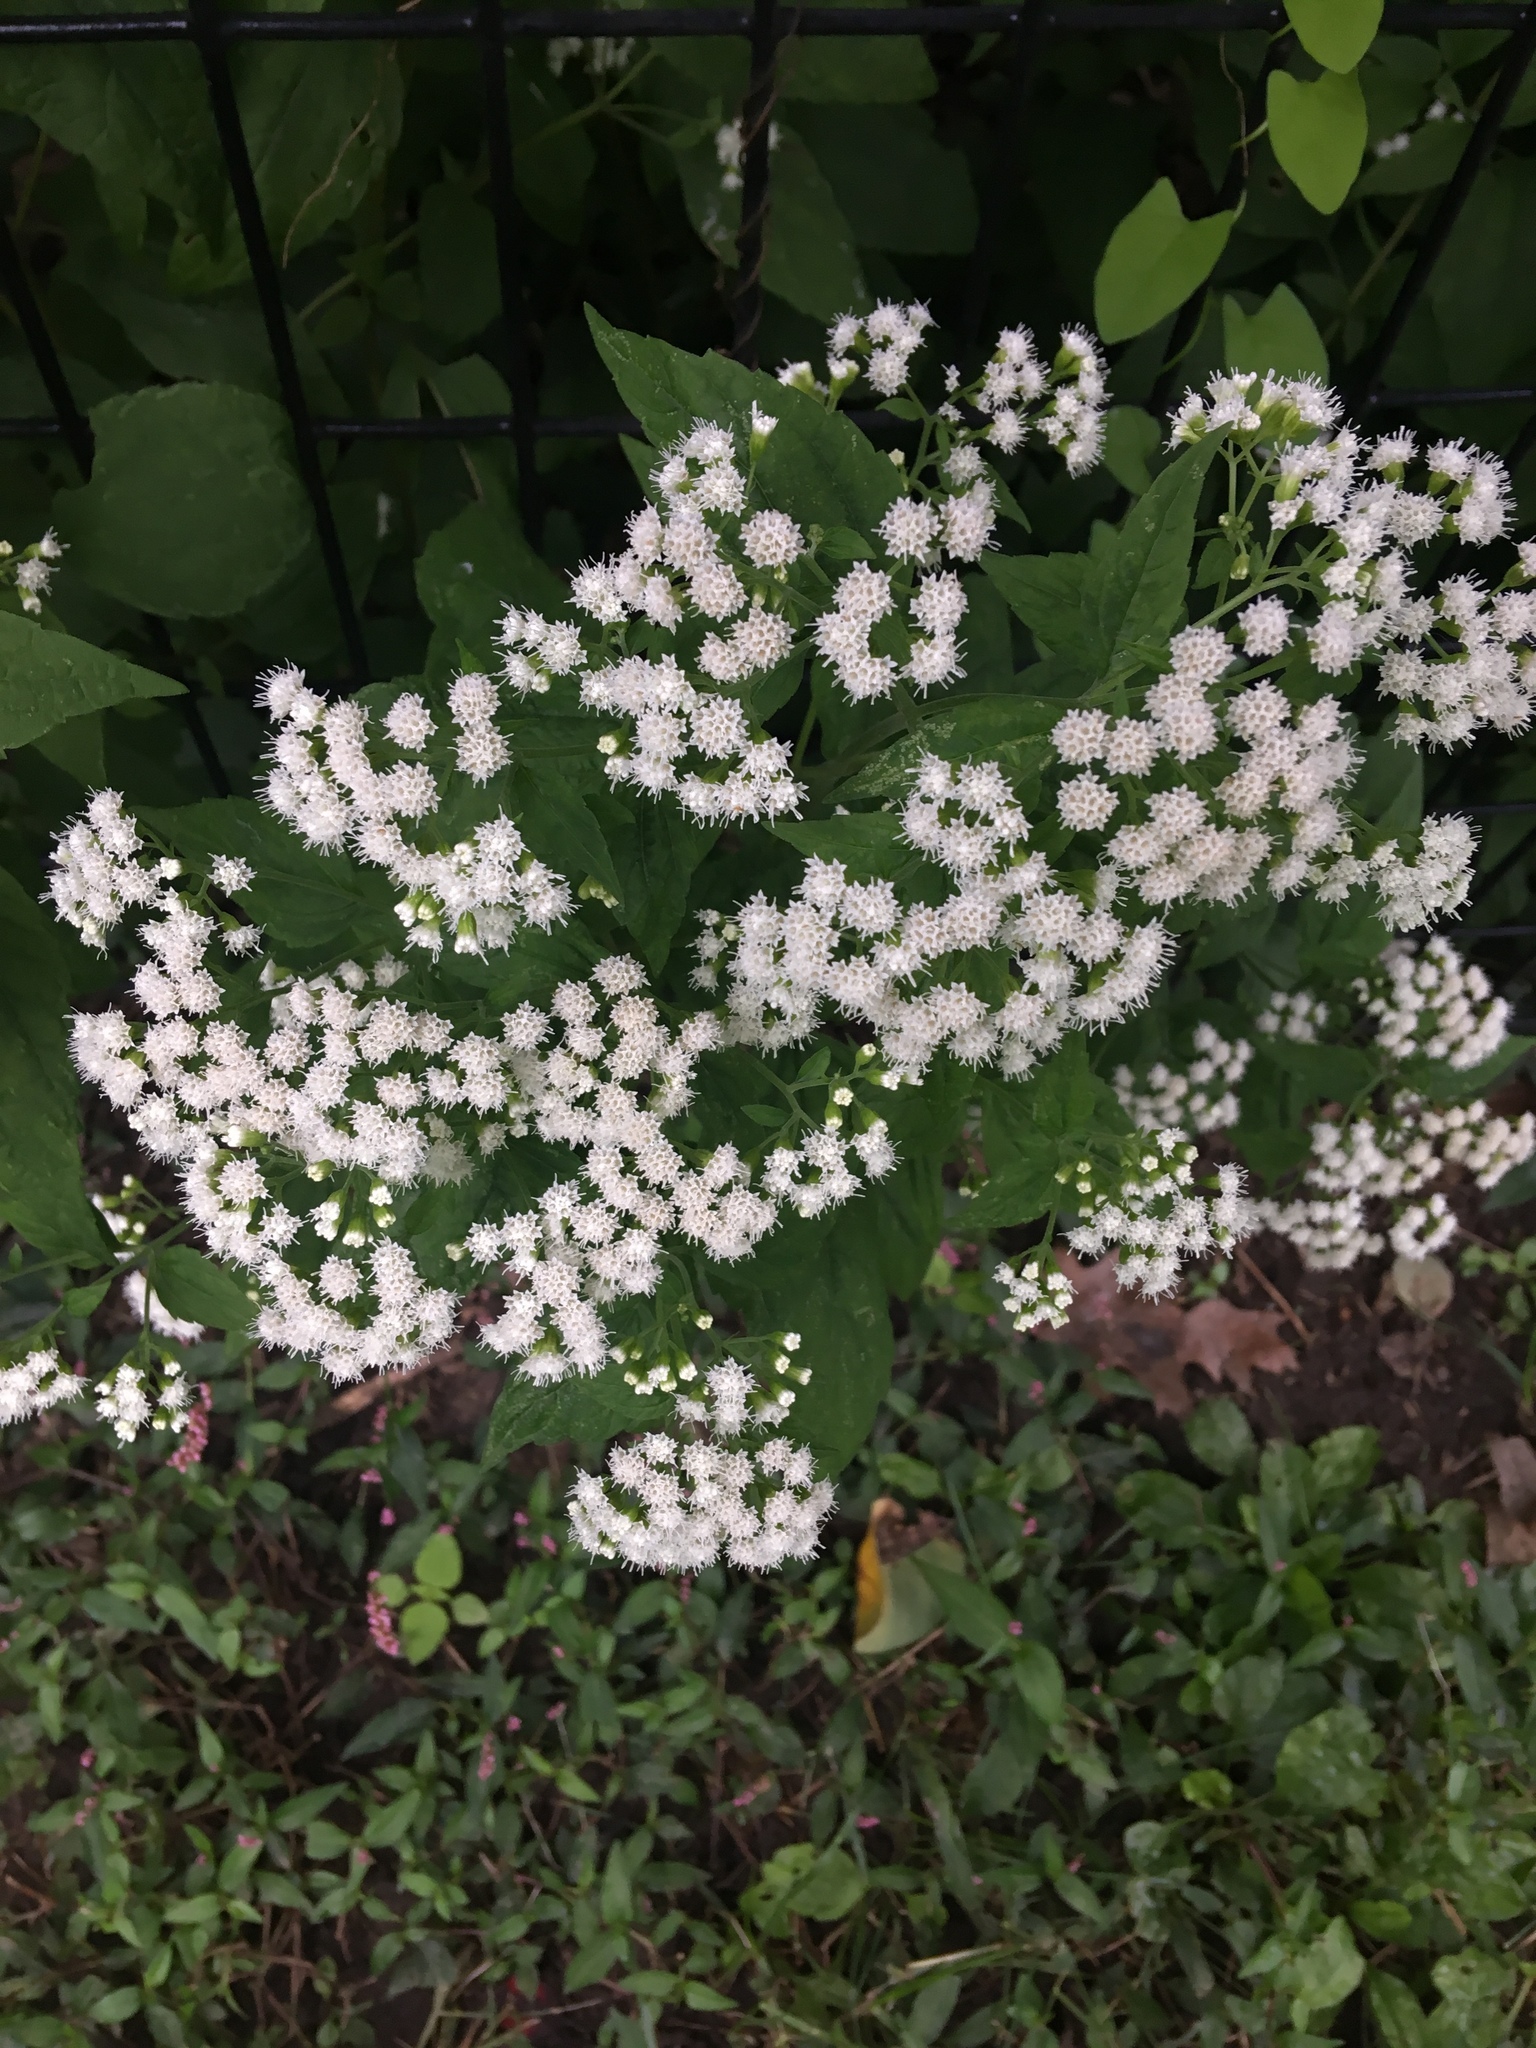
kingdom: Plantae
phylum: Tracheophyta
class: Magnoliopsida
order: Asterales
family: Asteraceae
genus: Ageratina
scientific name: Ageratina altissima
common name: White snakeroot
